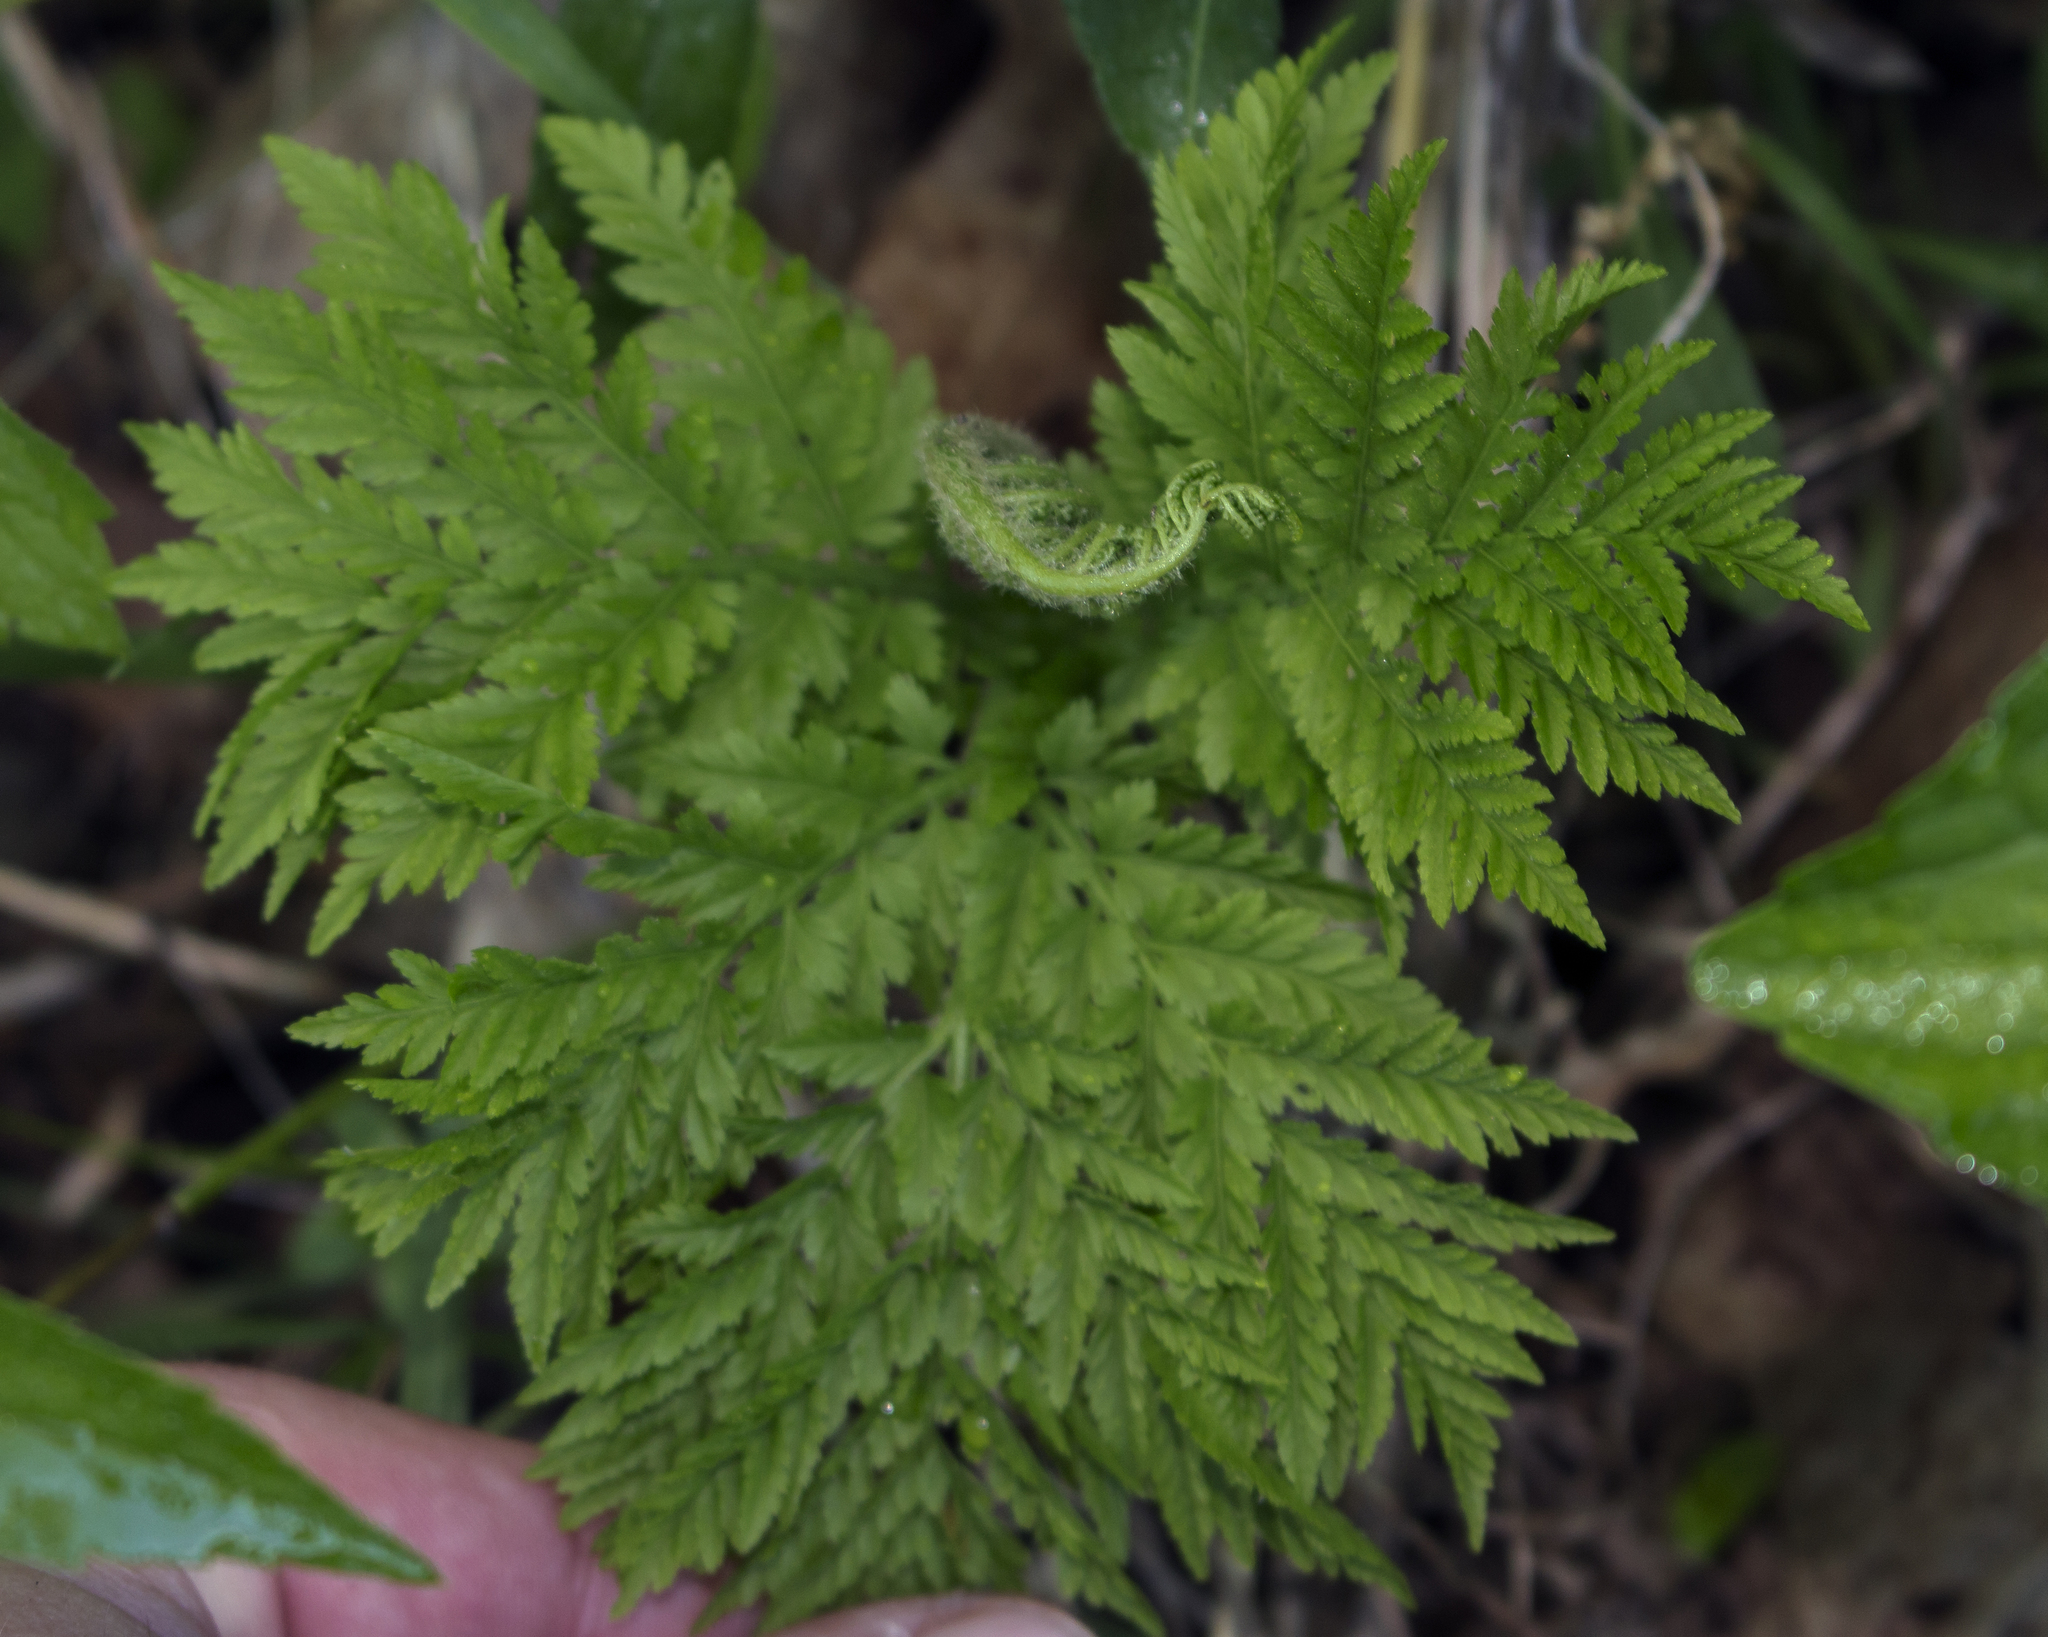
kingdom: Plantae
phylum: Tracheophyta
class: Polypodiopsida
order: Ophioglossales
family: Ophioglossaceae
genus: Botrypus
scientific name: Botrypus virginianus
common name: Common grapefern
